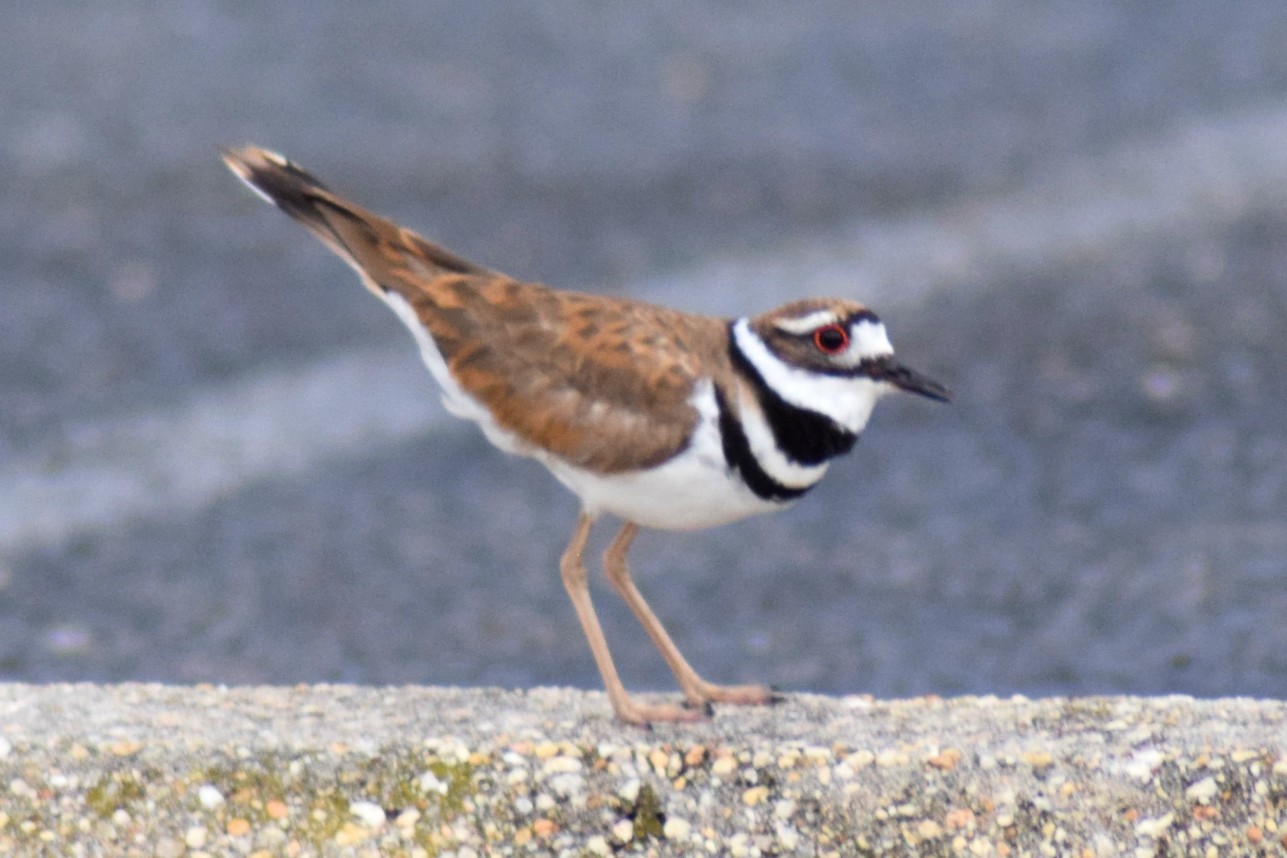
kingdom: Animalia
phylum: Chordata
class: Aves
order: Charadriiformes
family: Charadriidae
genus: Charadrius
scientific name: Charadrius vociferus
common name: Killdeer
